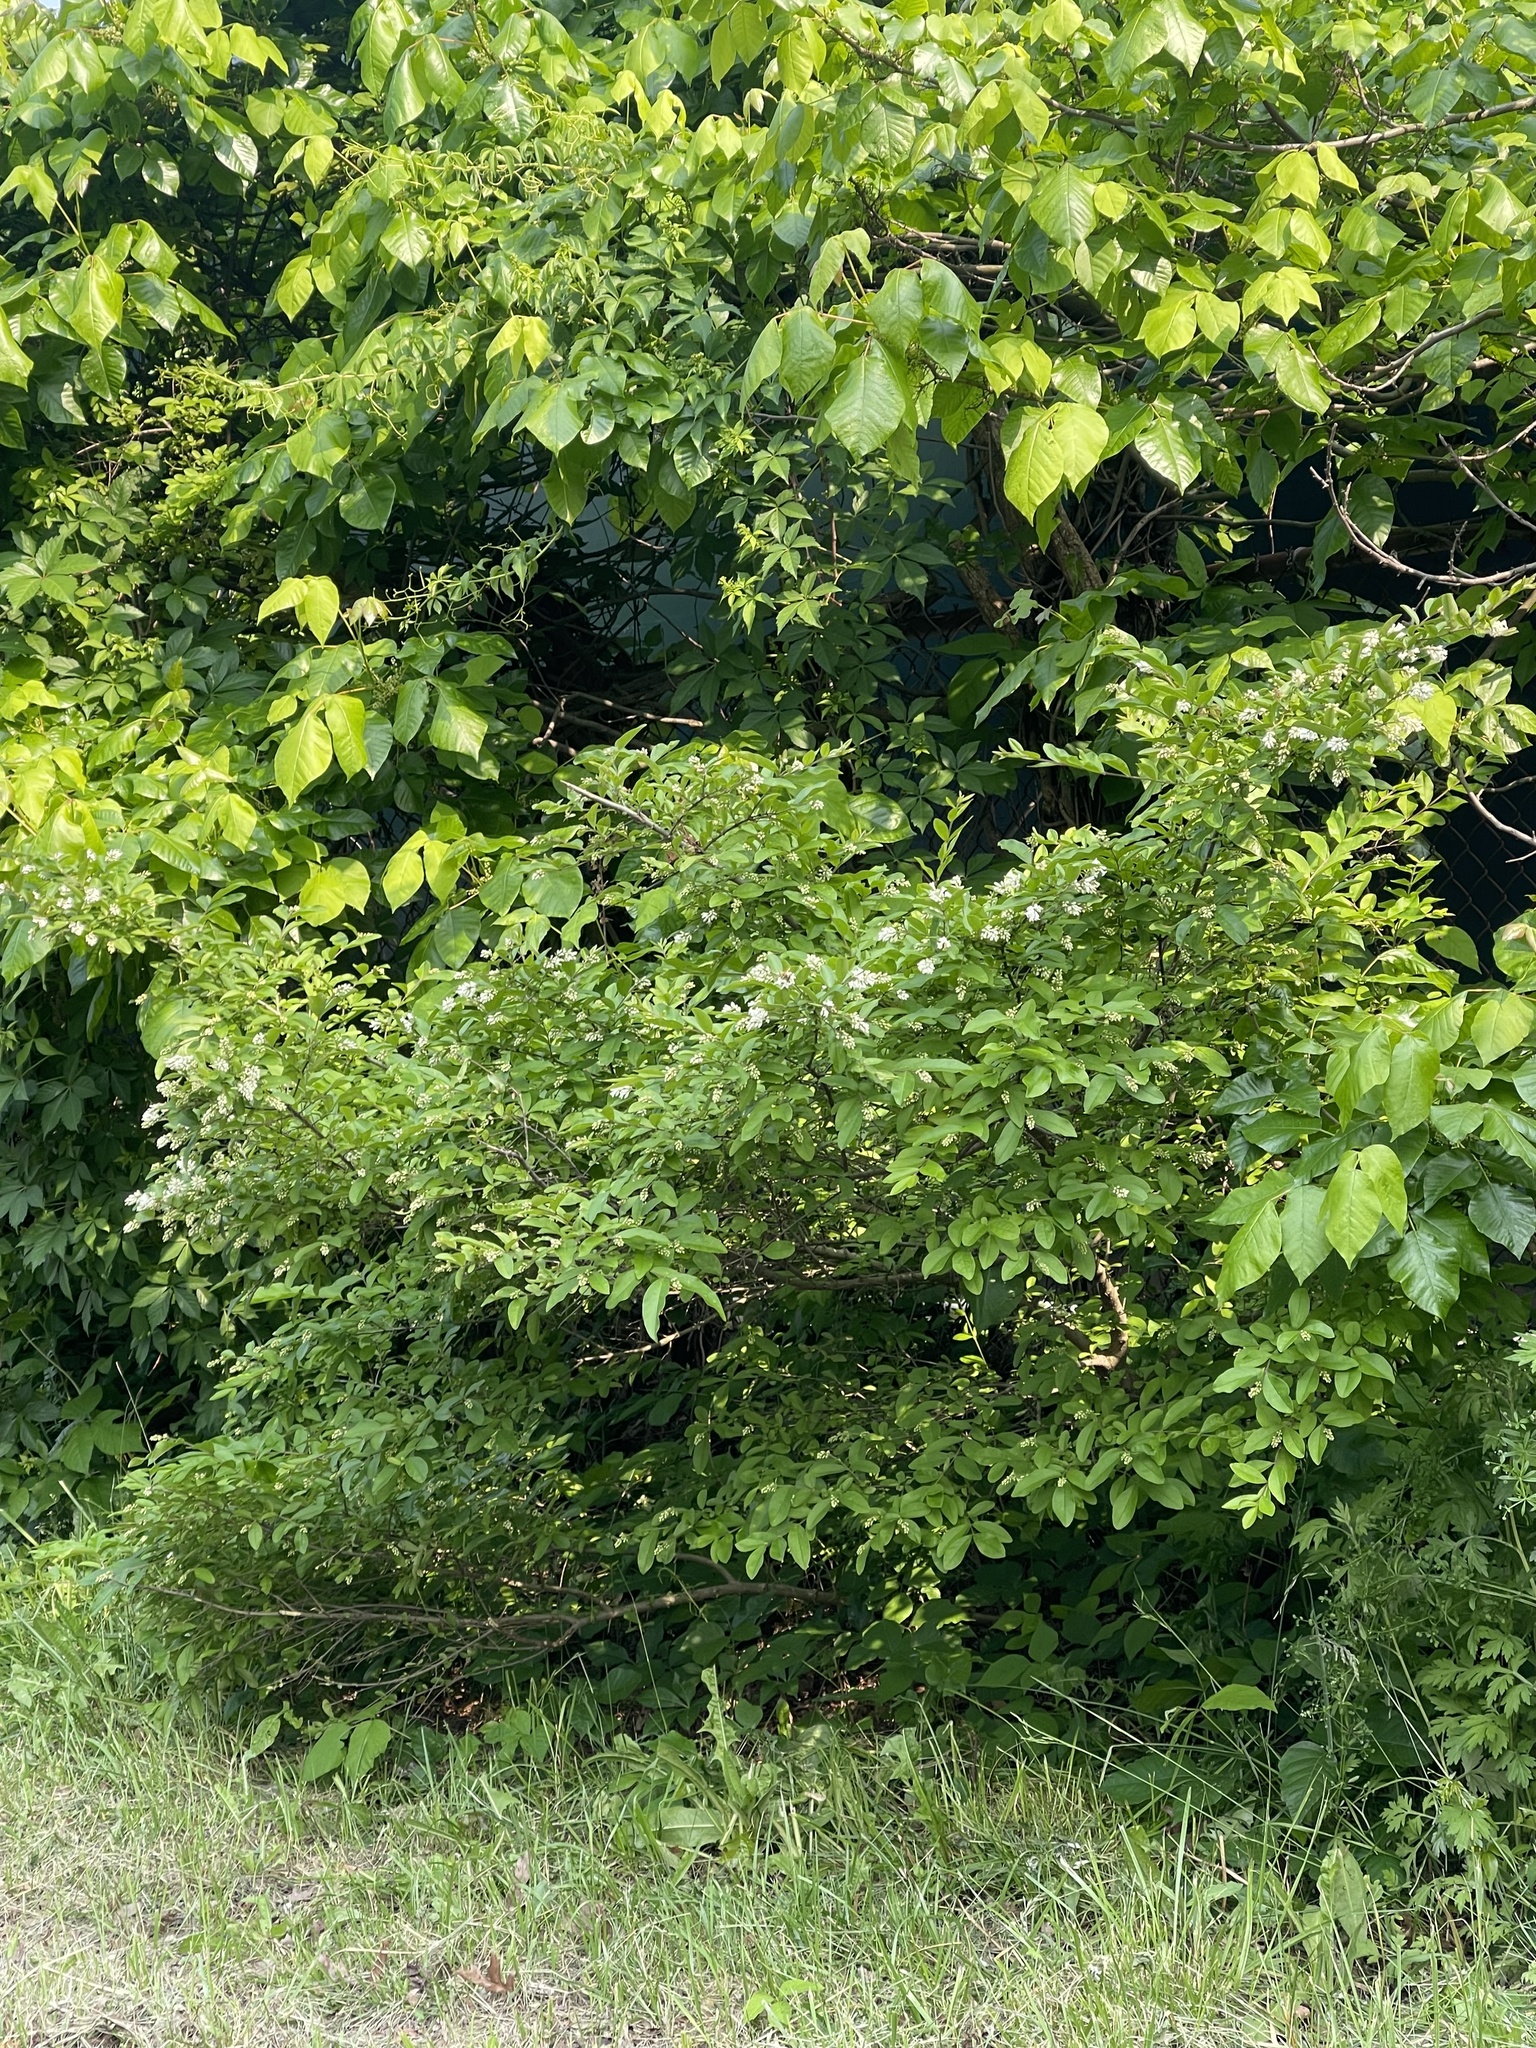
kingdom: Plantae
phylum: Tracheophyta
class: Magnoliopsida
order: Lamiales
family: Oleaceae
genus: Ligustrum
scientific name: Ligustrum obtusifolium
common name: Border privet
